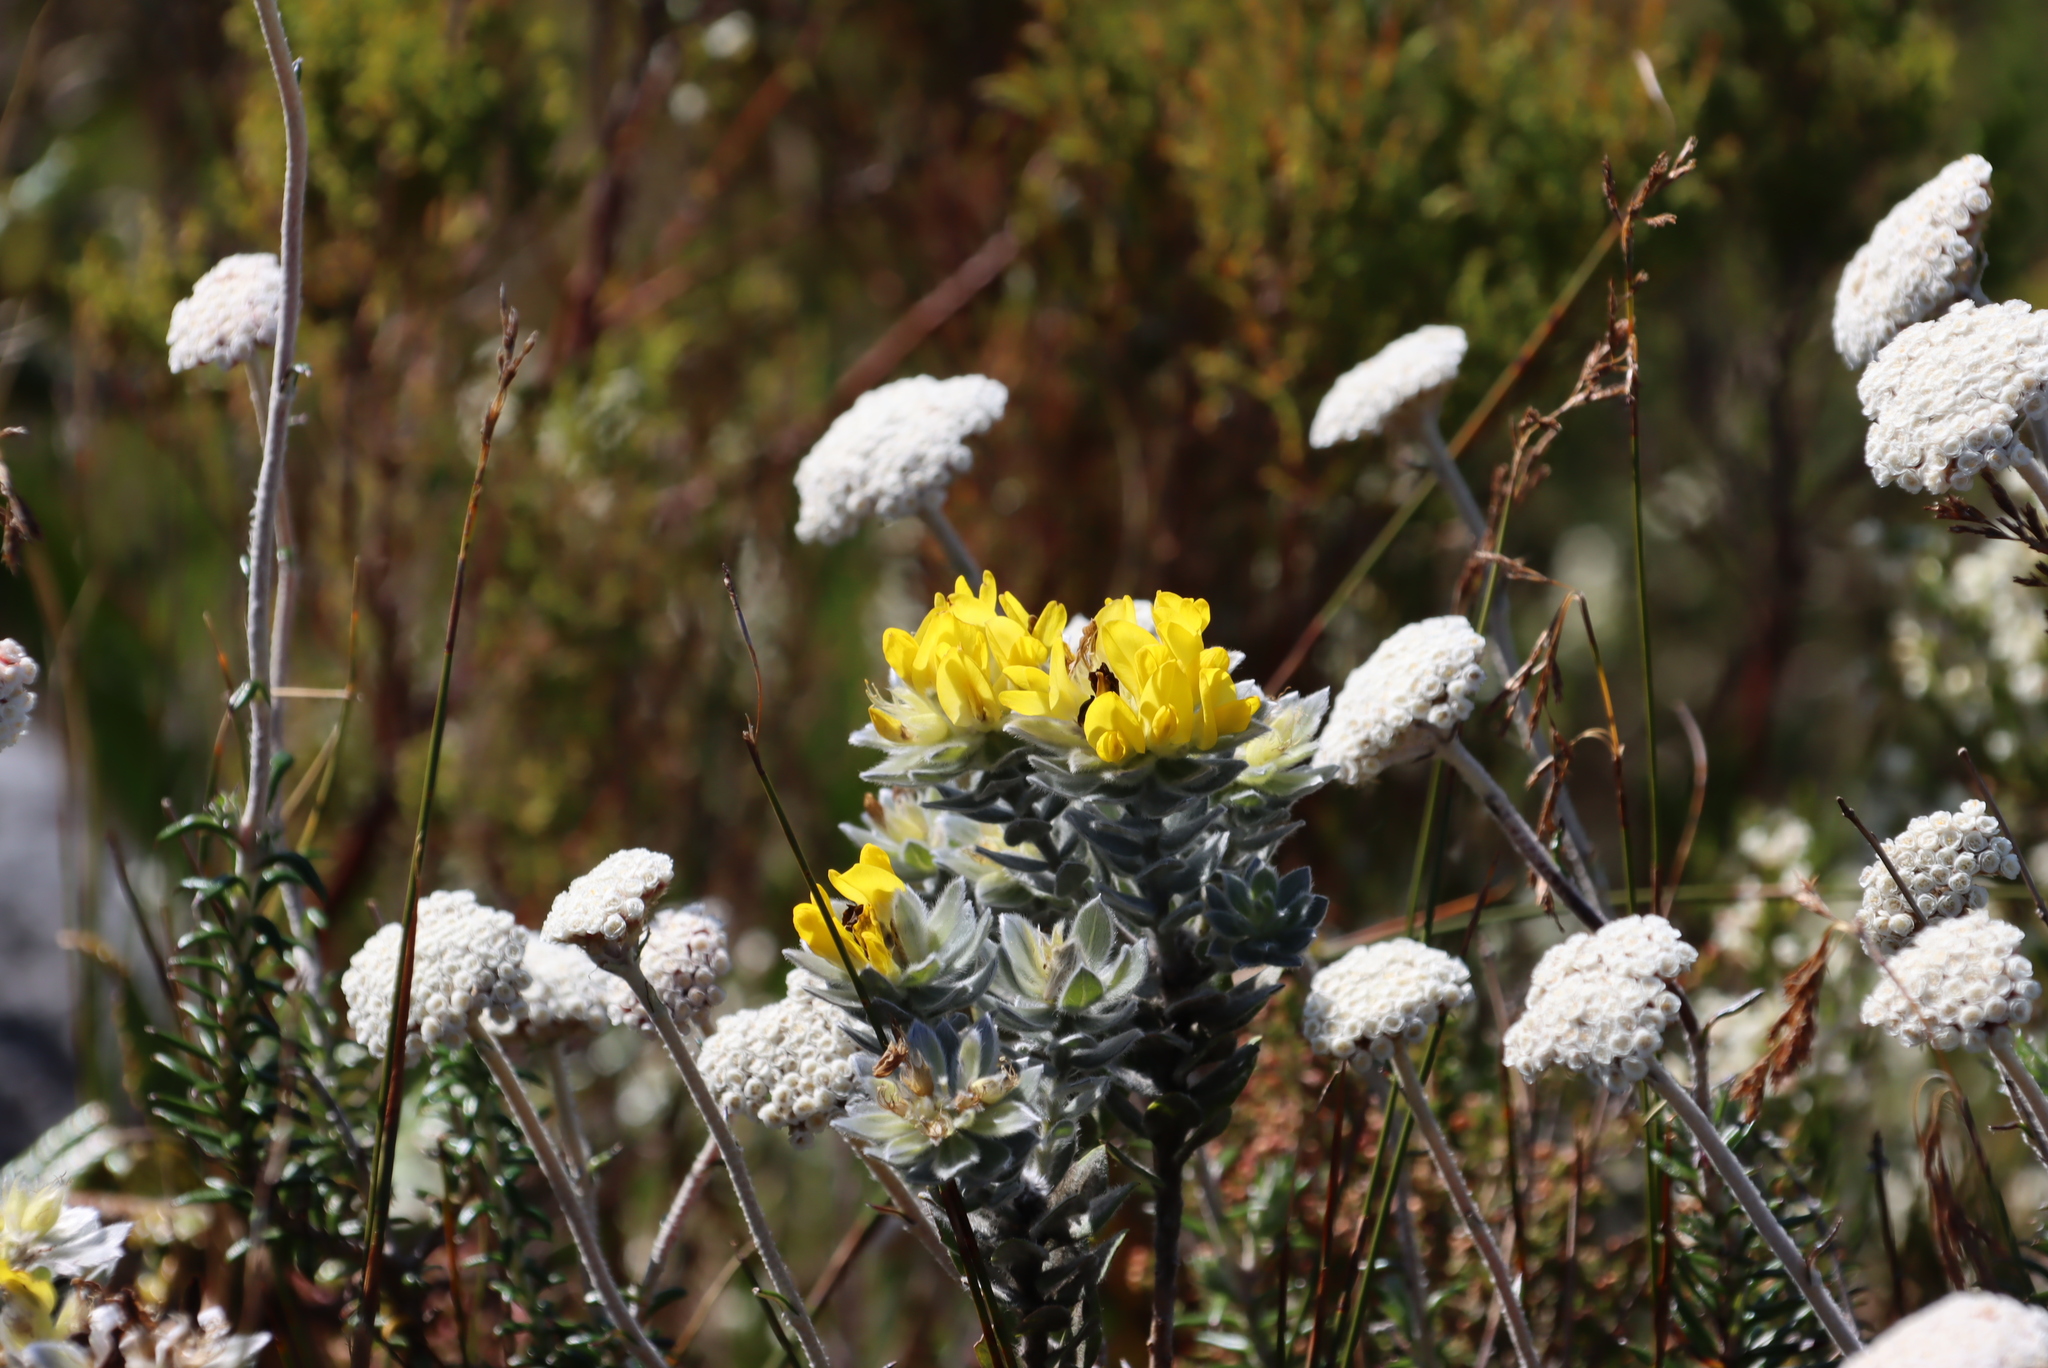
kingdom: Plantae
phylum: Tracheophyta
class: Magnoliopsida
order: Asterales
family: Asteraceae
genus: Anaxeton
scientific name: Anaxeton arborescens
